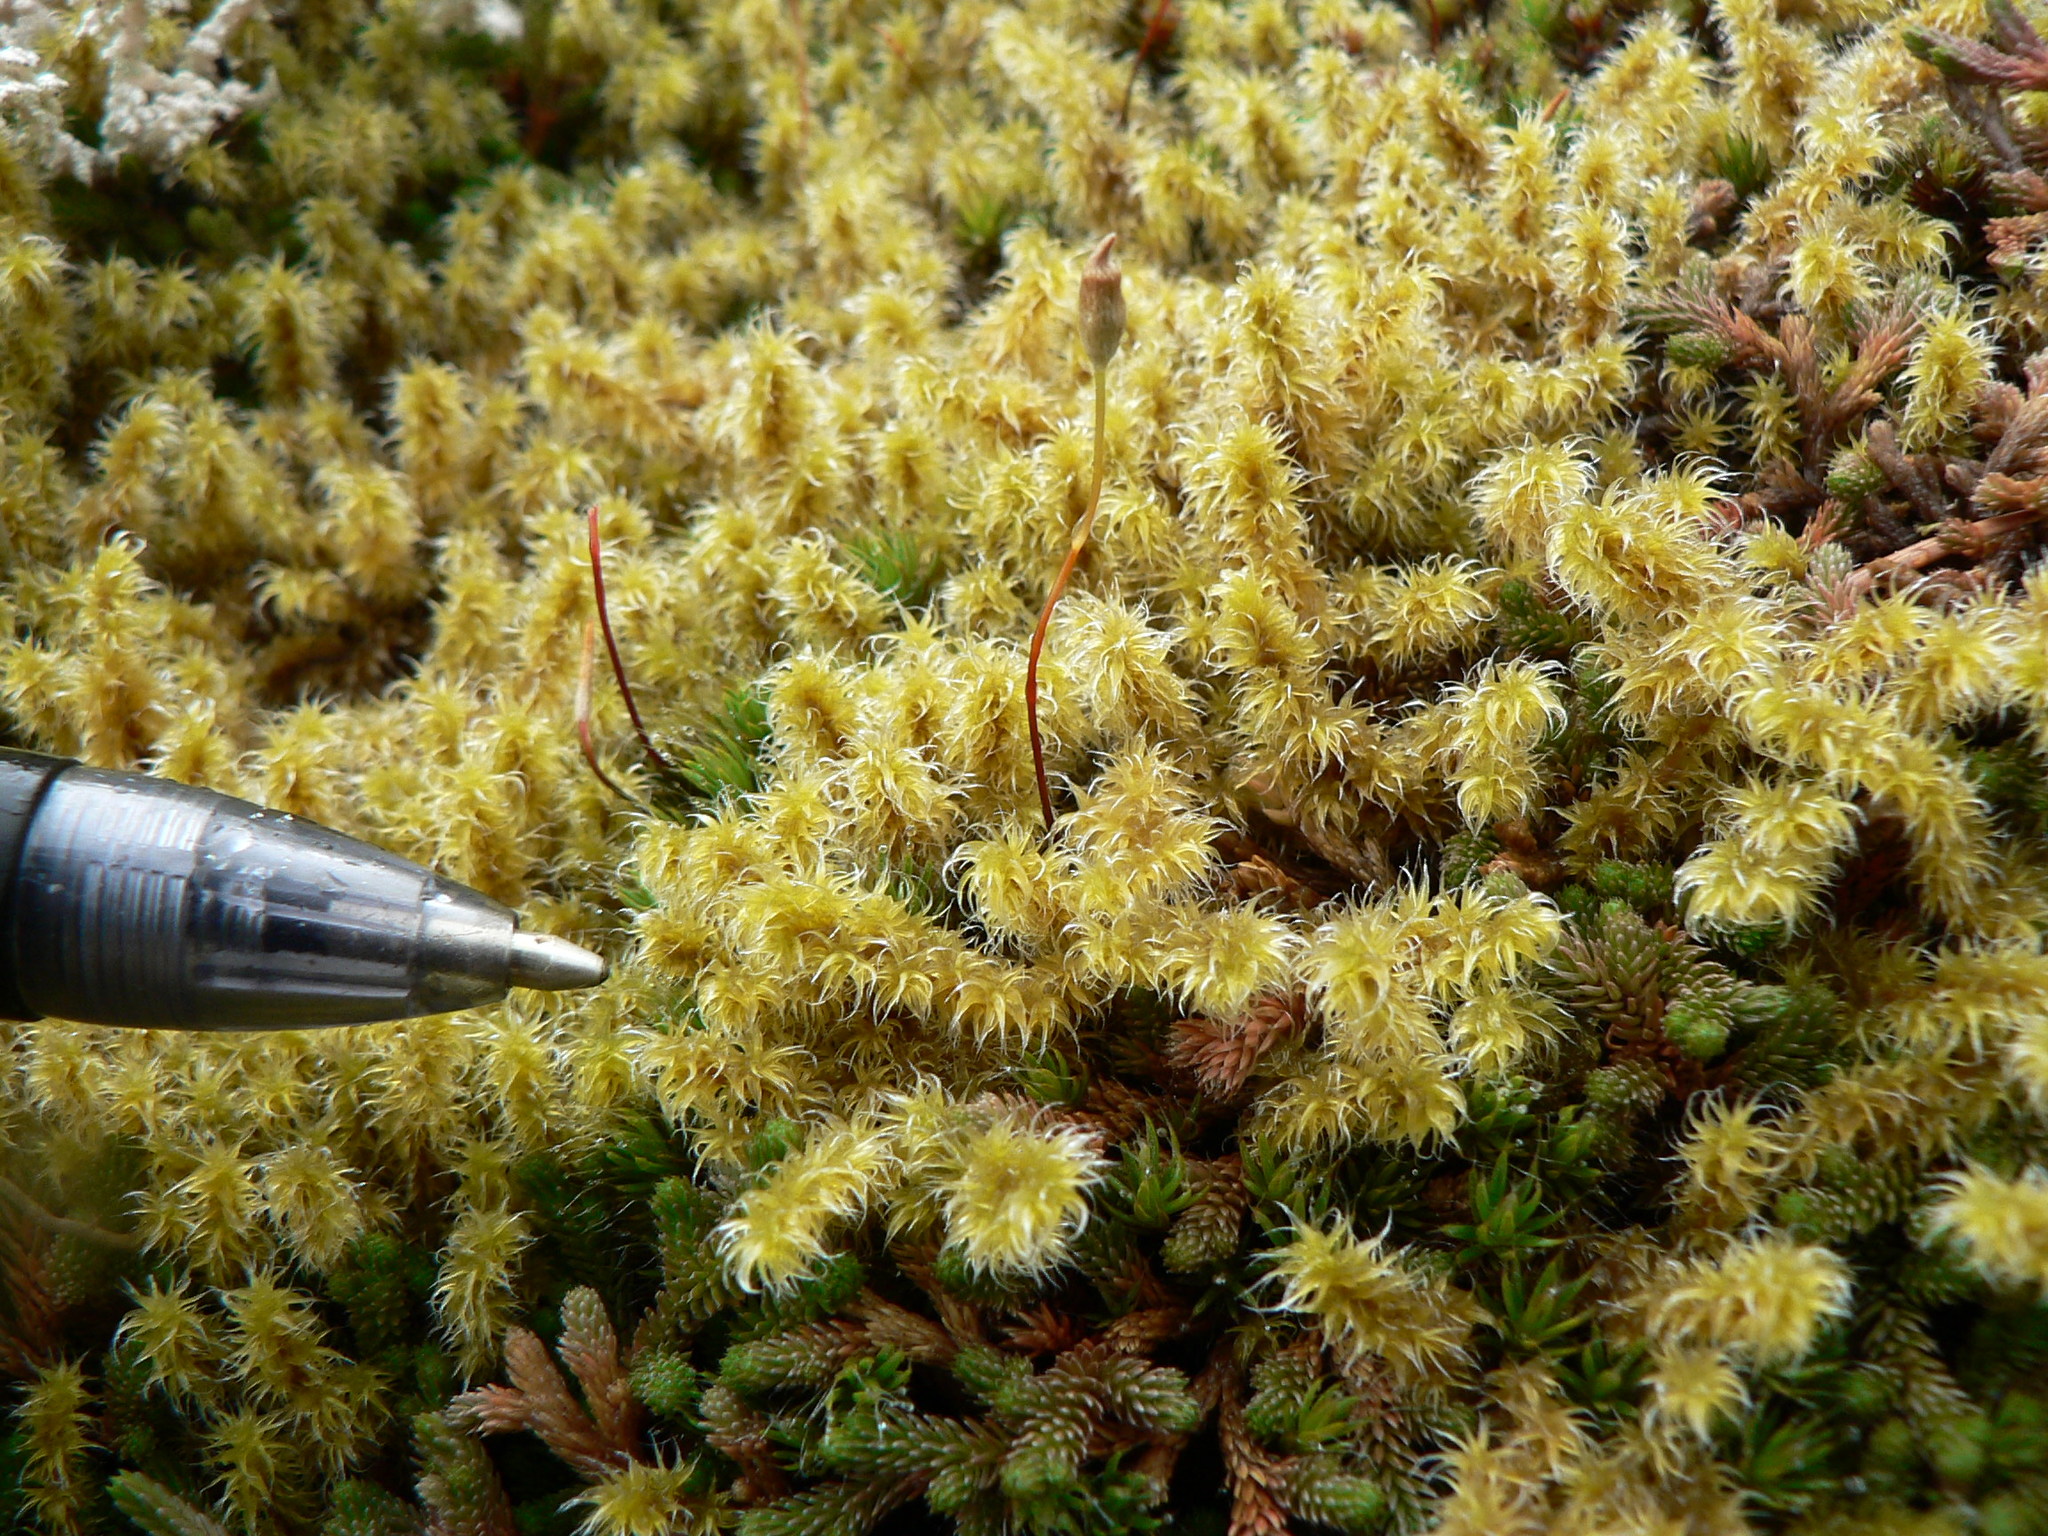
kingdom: Plantae
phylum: Bryophyta
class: Bryopsida
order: Grimmiales
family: Grimmiaceae
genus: Niphotrichum
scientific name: Niphotrichum elongatum
